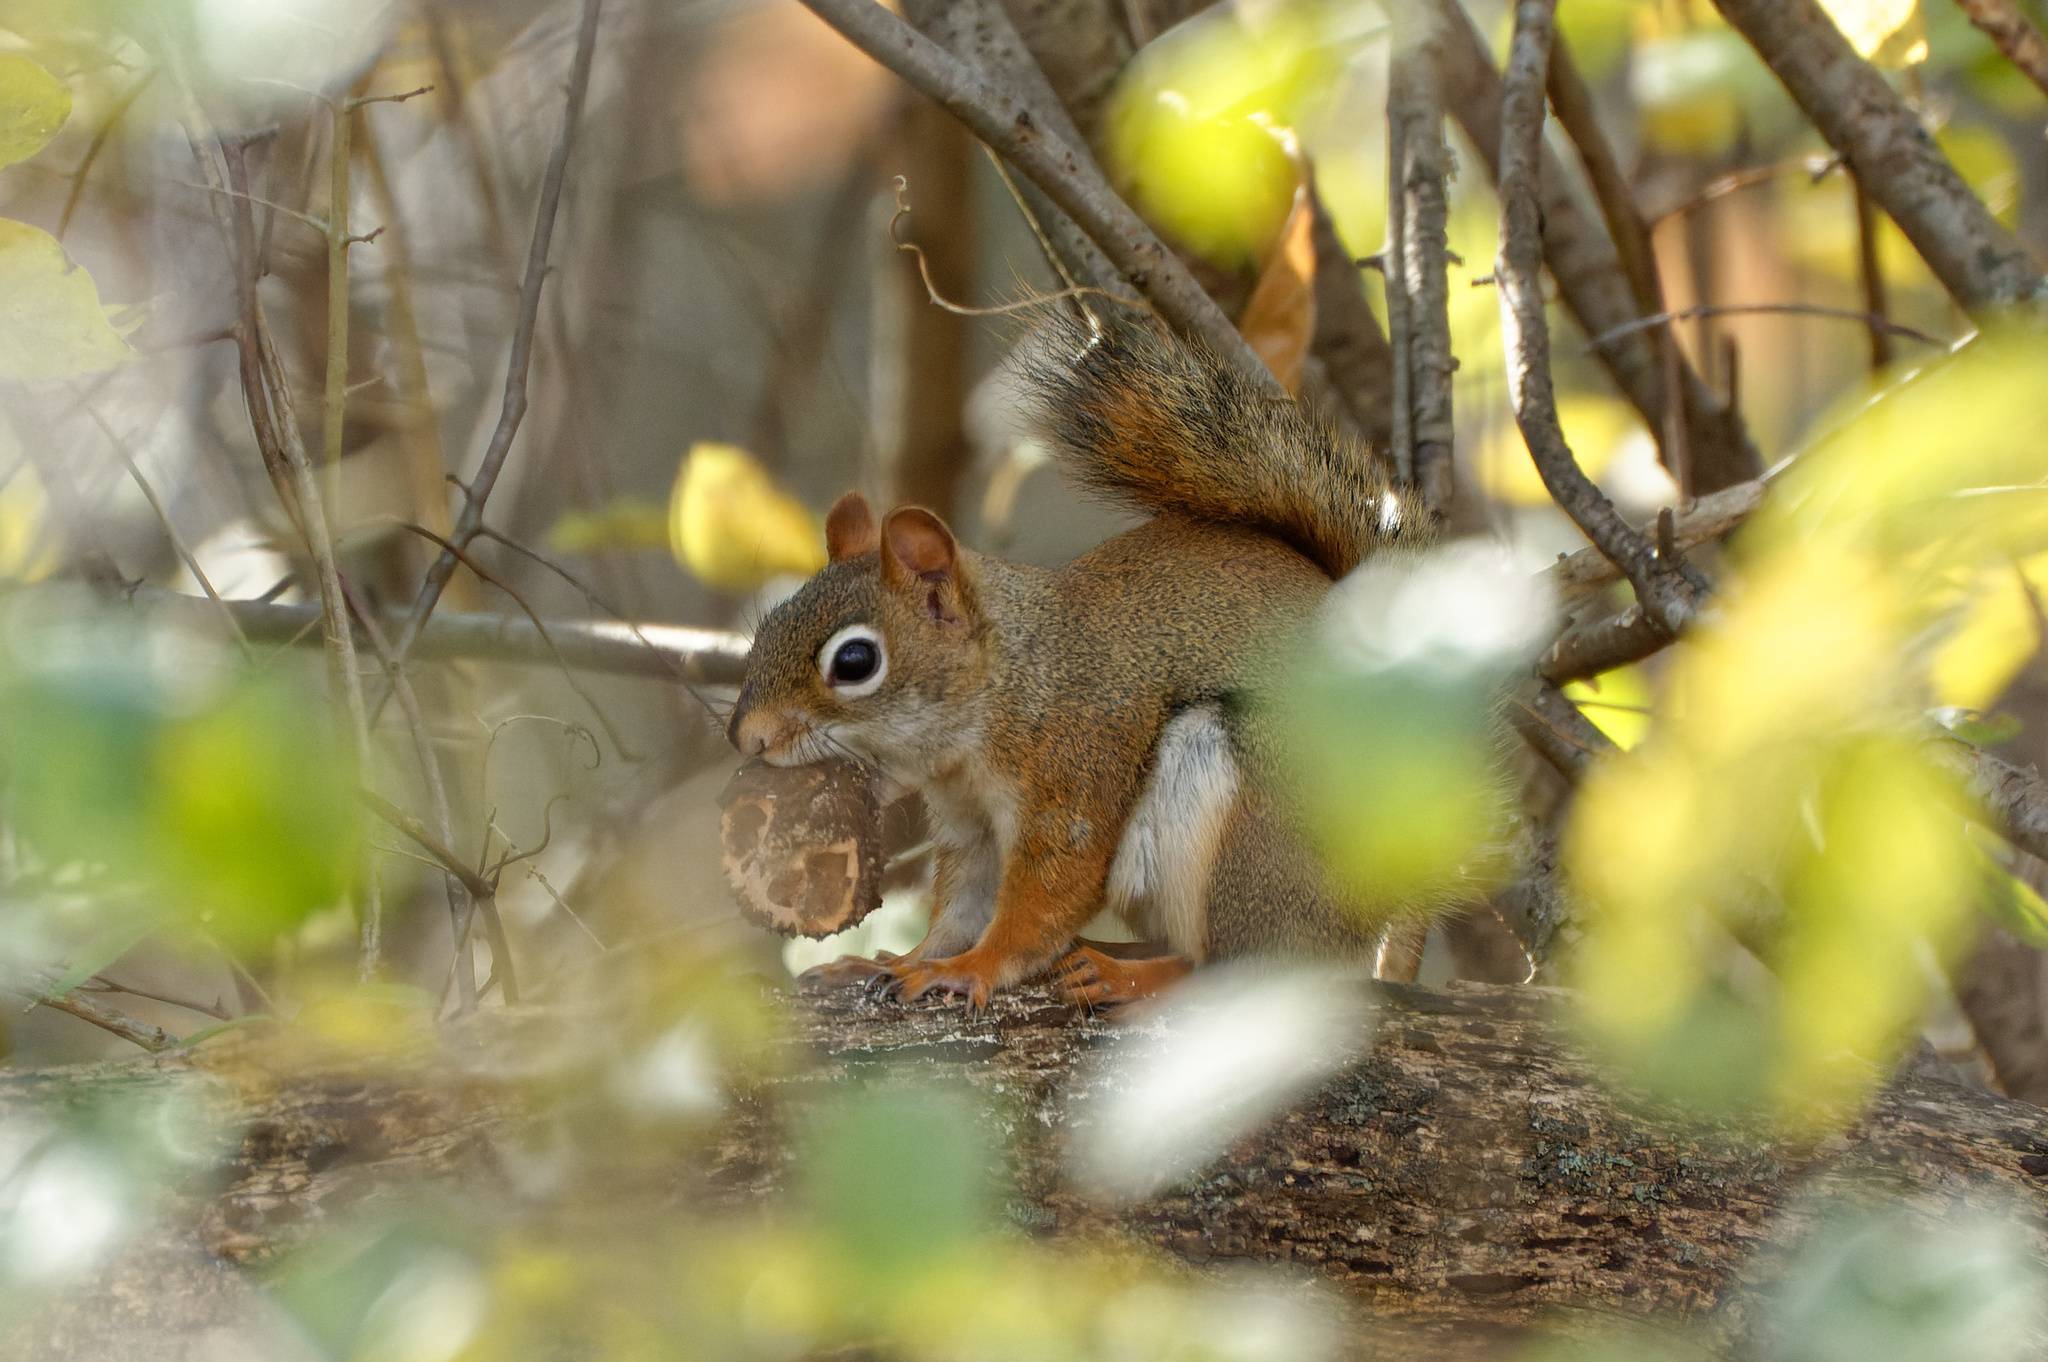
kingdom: Animalia
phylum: Chordata
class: Mammalia
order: Rodentia
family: Sciuridae
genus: Tamiasciurus
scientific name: Tamiasciurus hudsonicus
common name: Red squirrel
